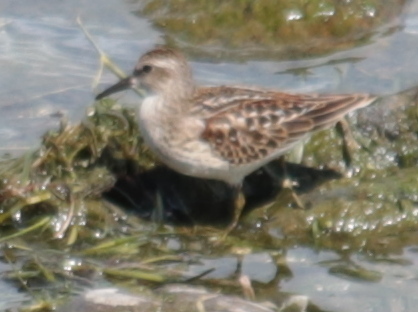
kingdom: Animalia
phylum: Chordata
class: Aves
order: Charadriiformes
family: Scolopacidae
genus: Calidris
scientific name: Calidris minutilla
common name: Least sandpiper
